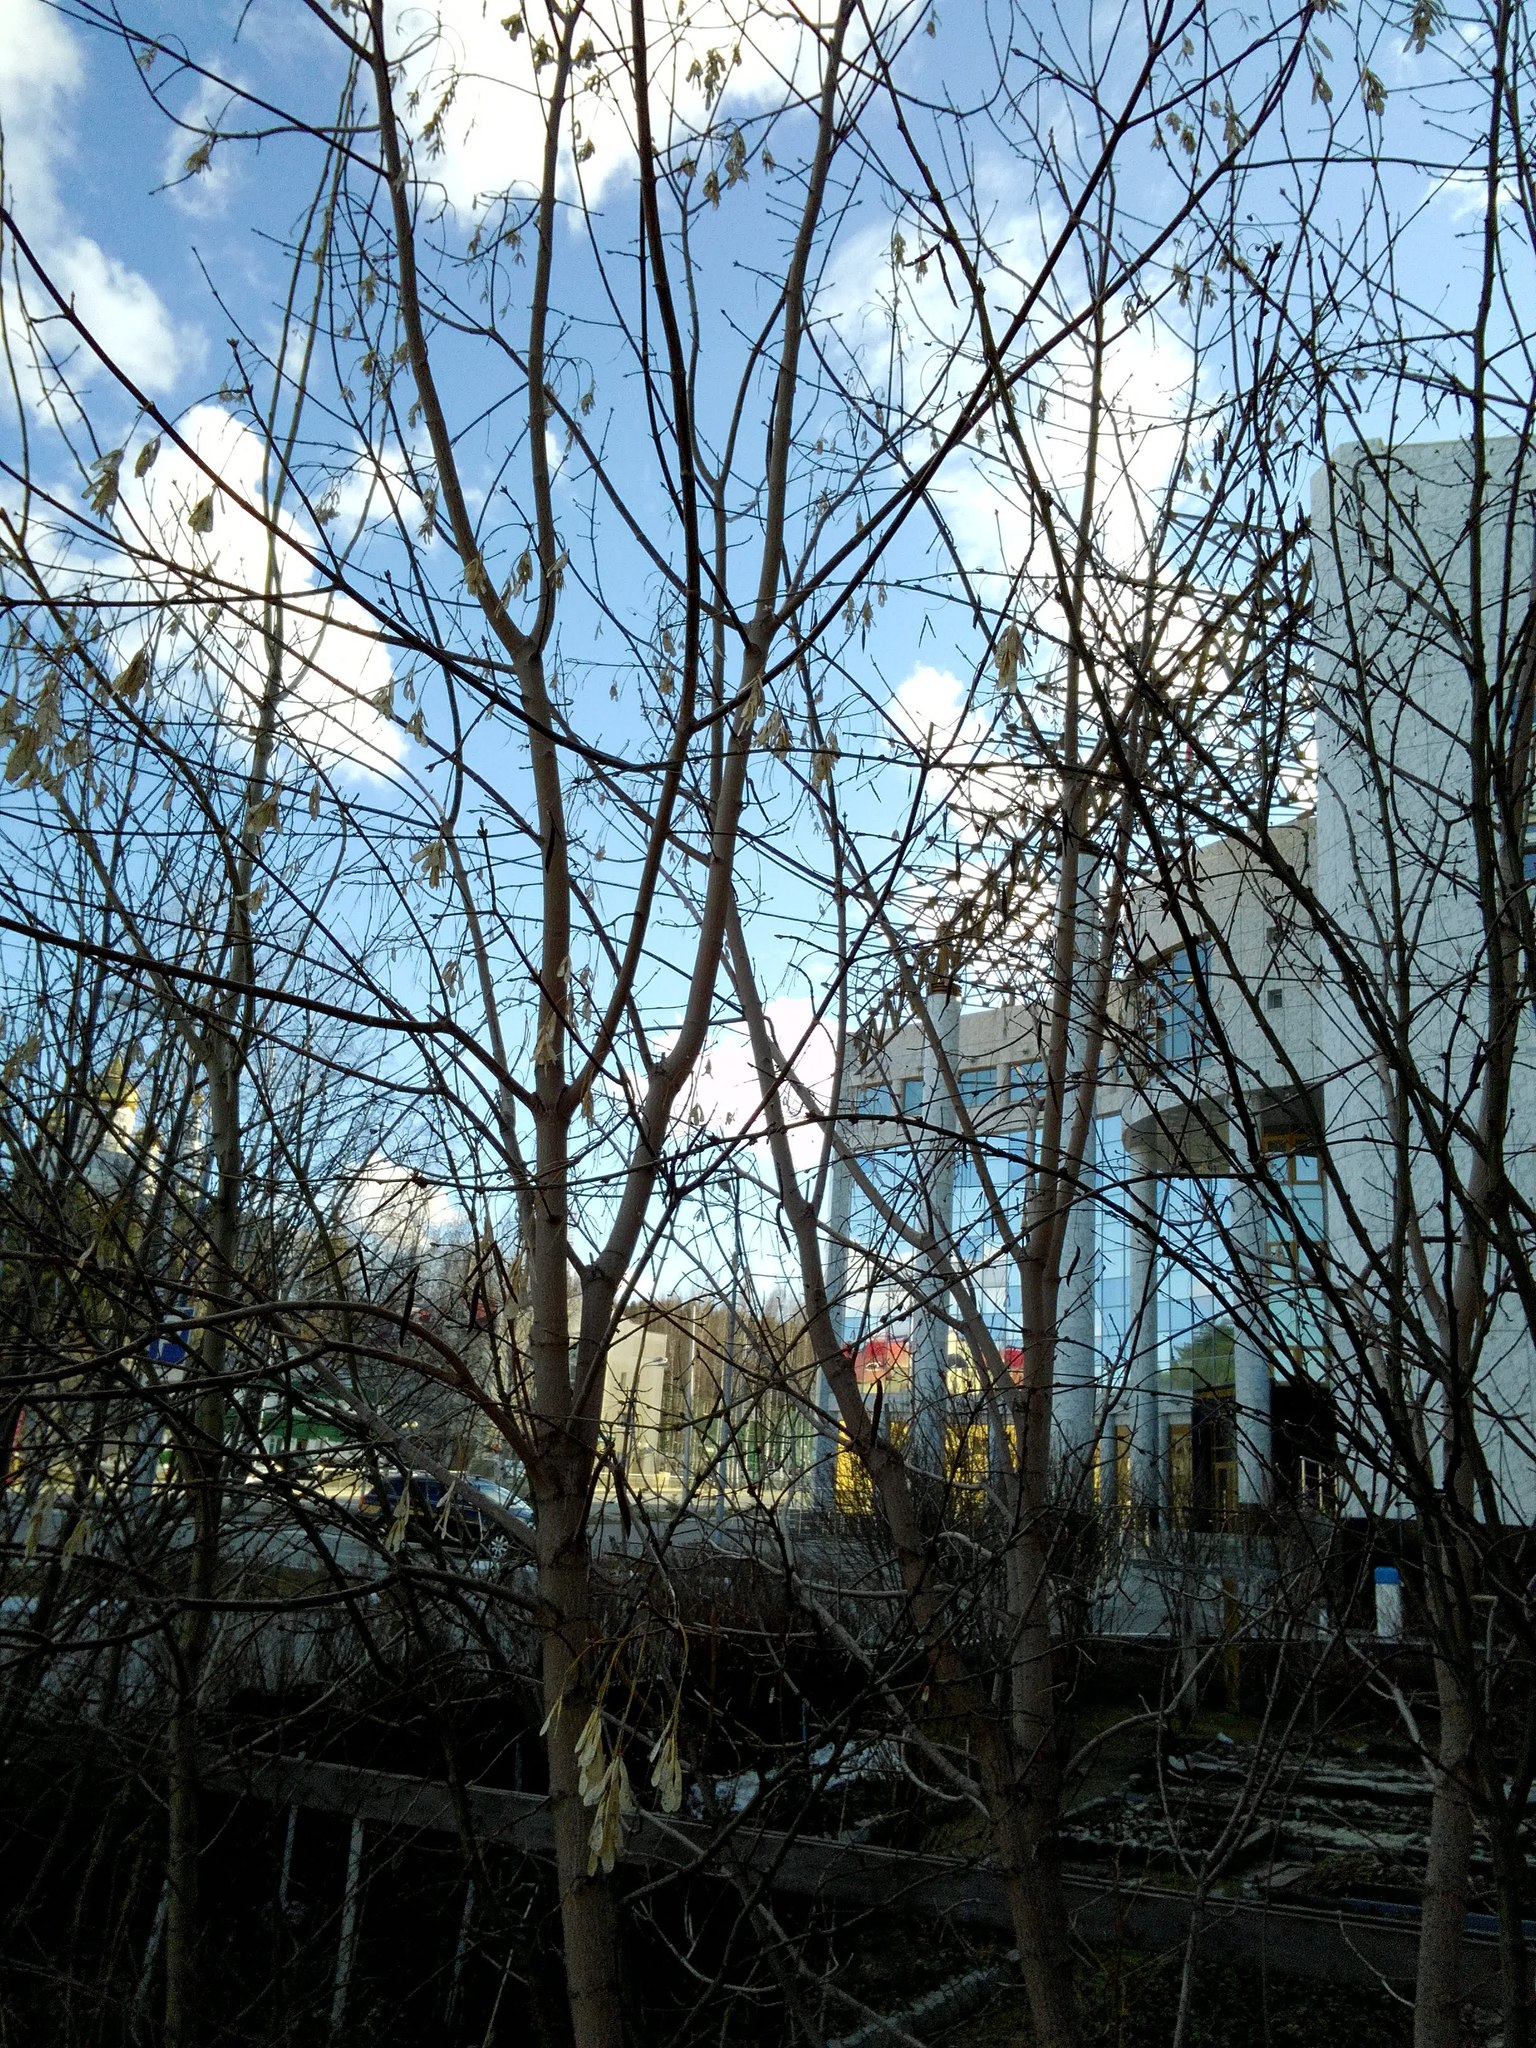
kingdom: Plantae
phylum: Tracheophyta
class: Magnoliopsida
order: Sapindales
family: Sapindaceae
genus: Acer
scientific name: Acer negundo
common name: Ashleaf maple
